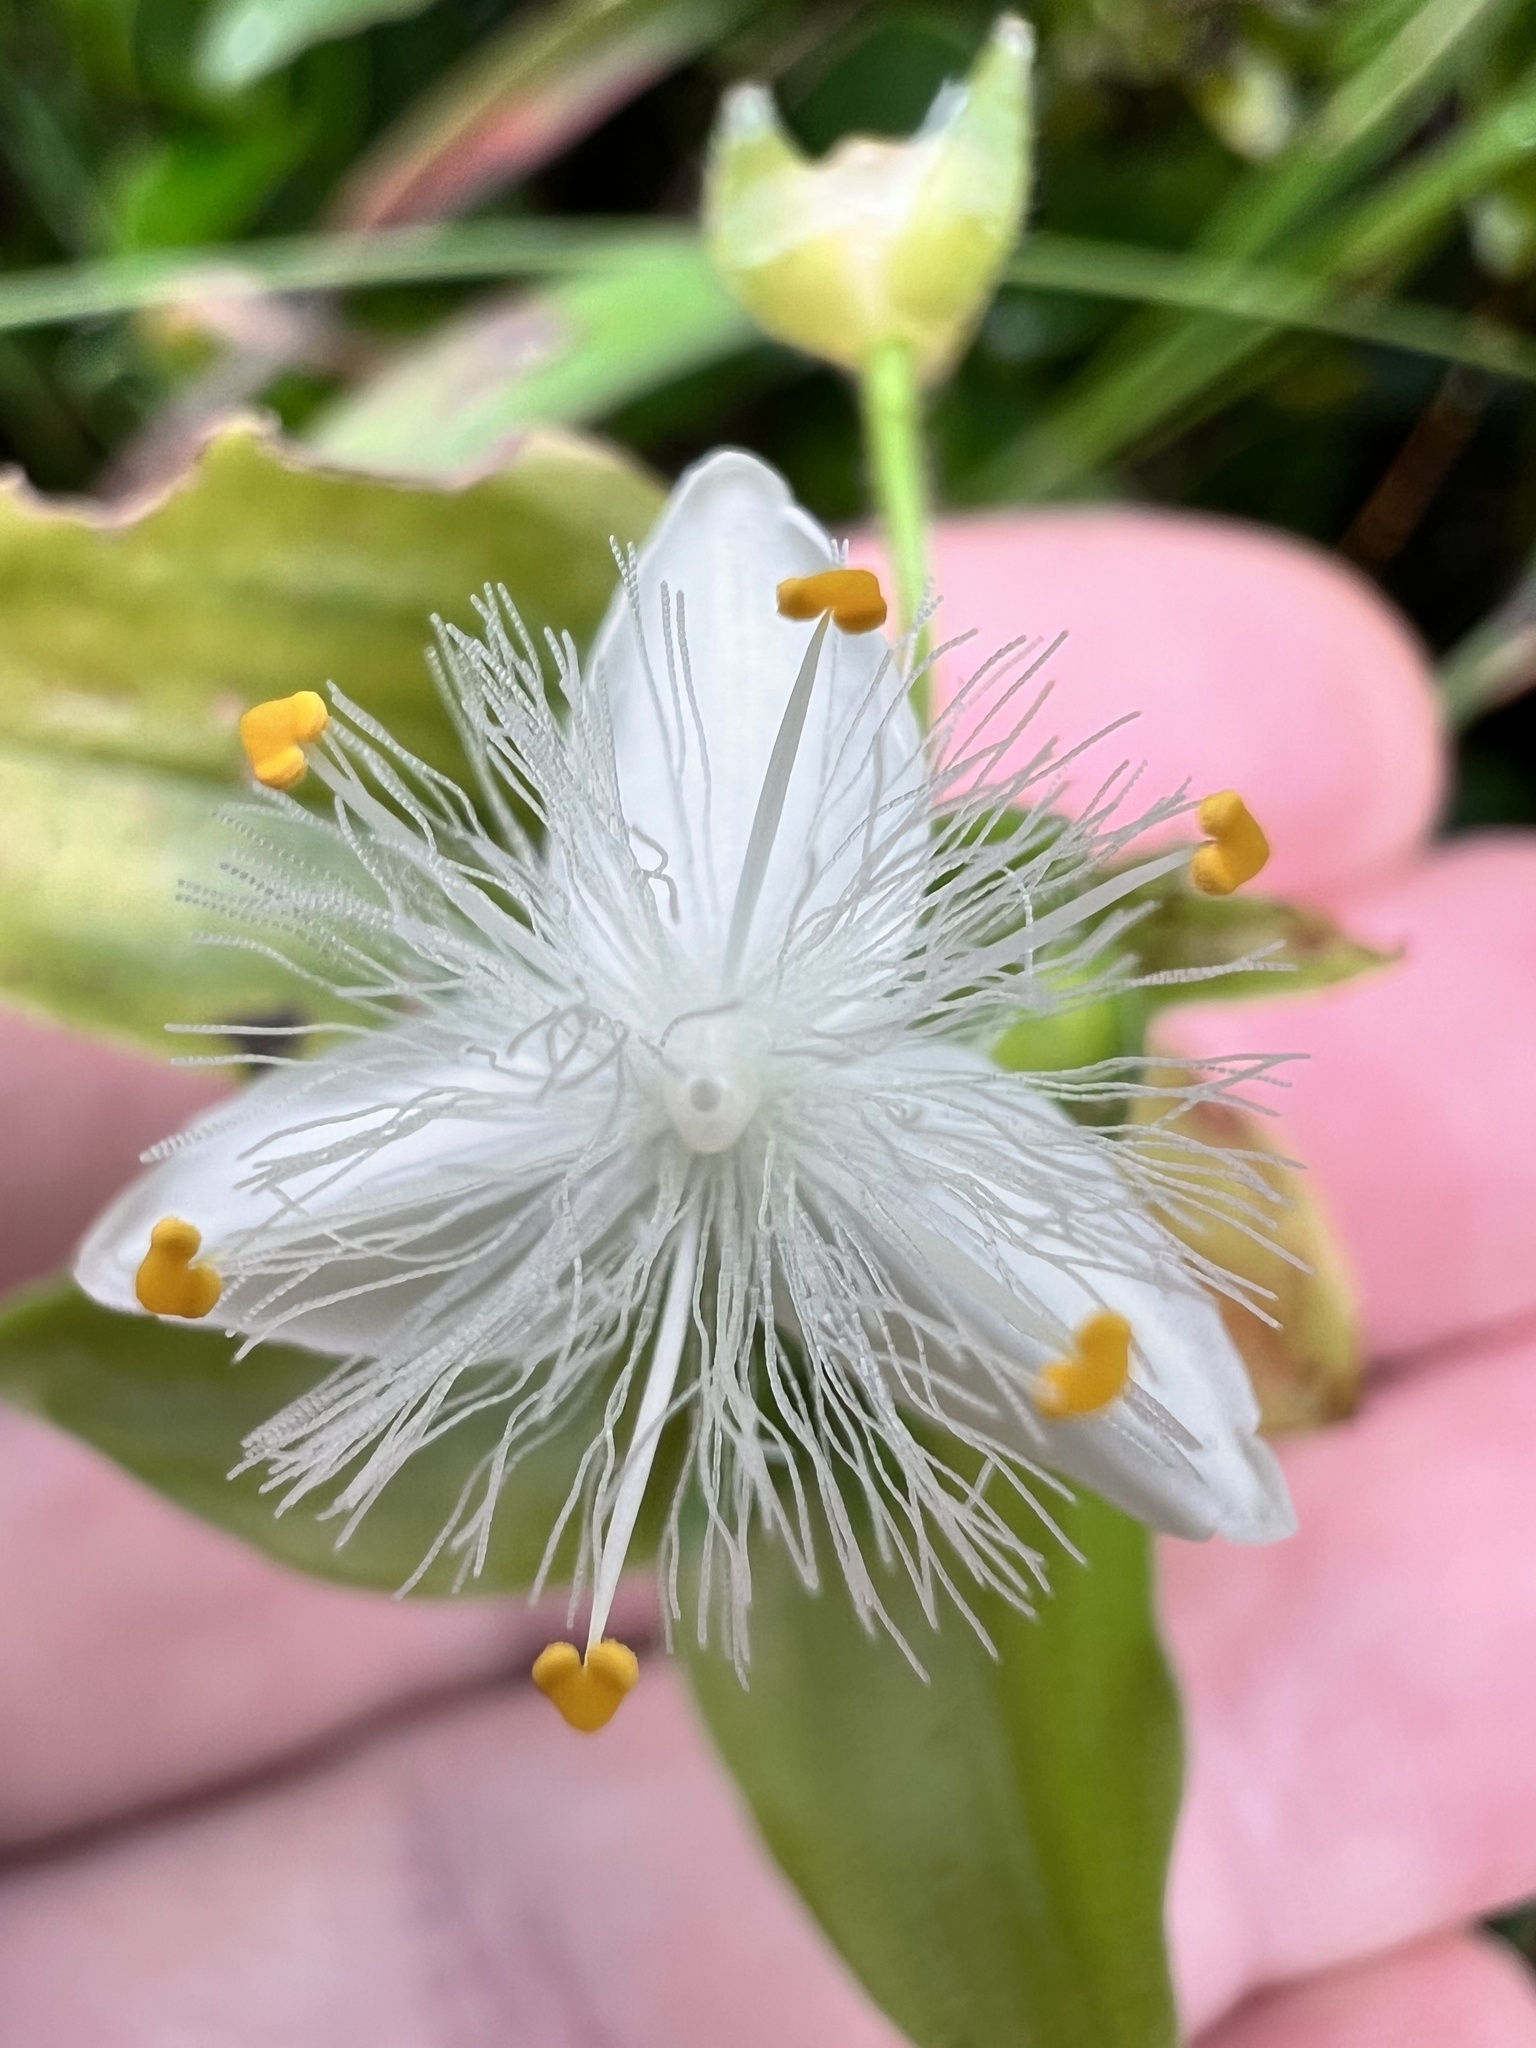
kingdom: Plantae
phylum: Tracheophyta
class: Liliopsida
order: Commelinales
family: Commelinaceae
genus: Tradescantia
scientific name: Tradescantia fluminensis
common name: Wandering-jew
